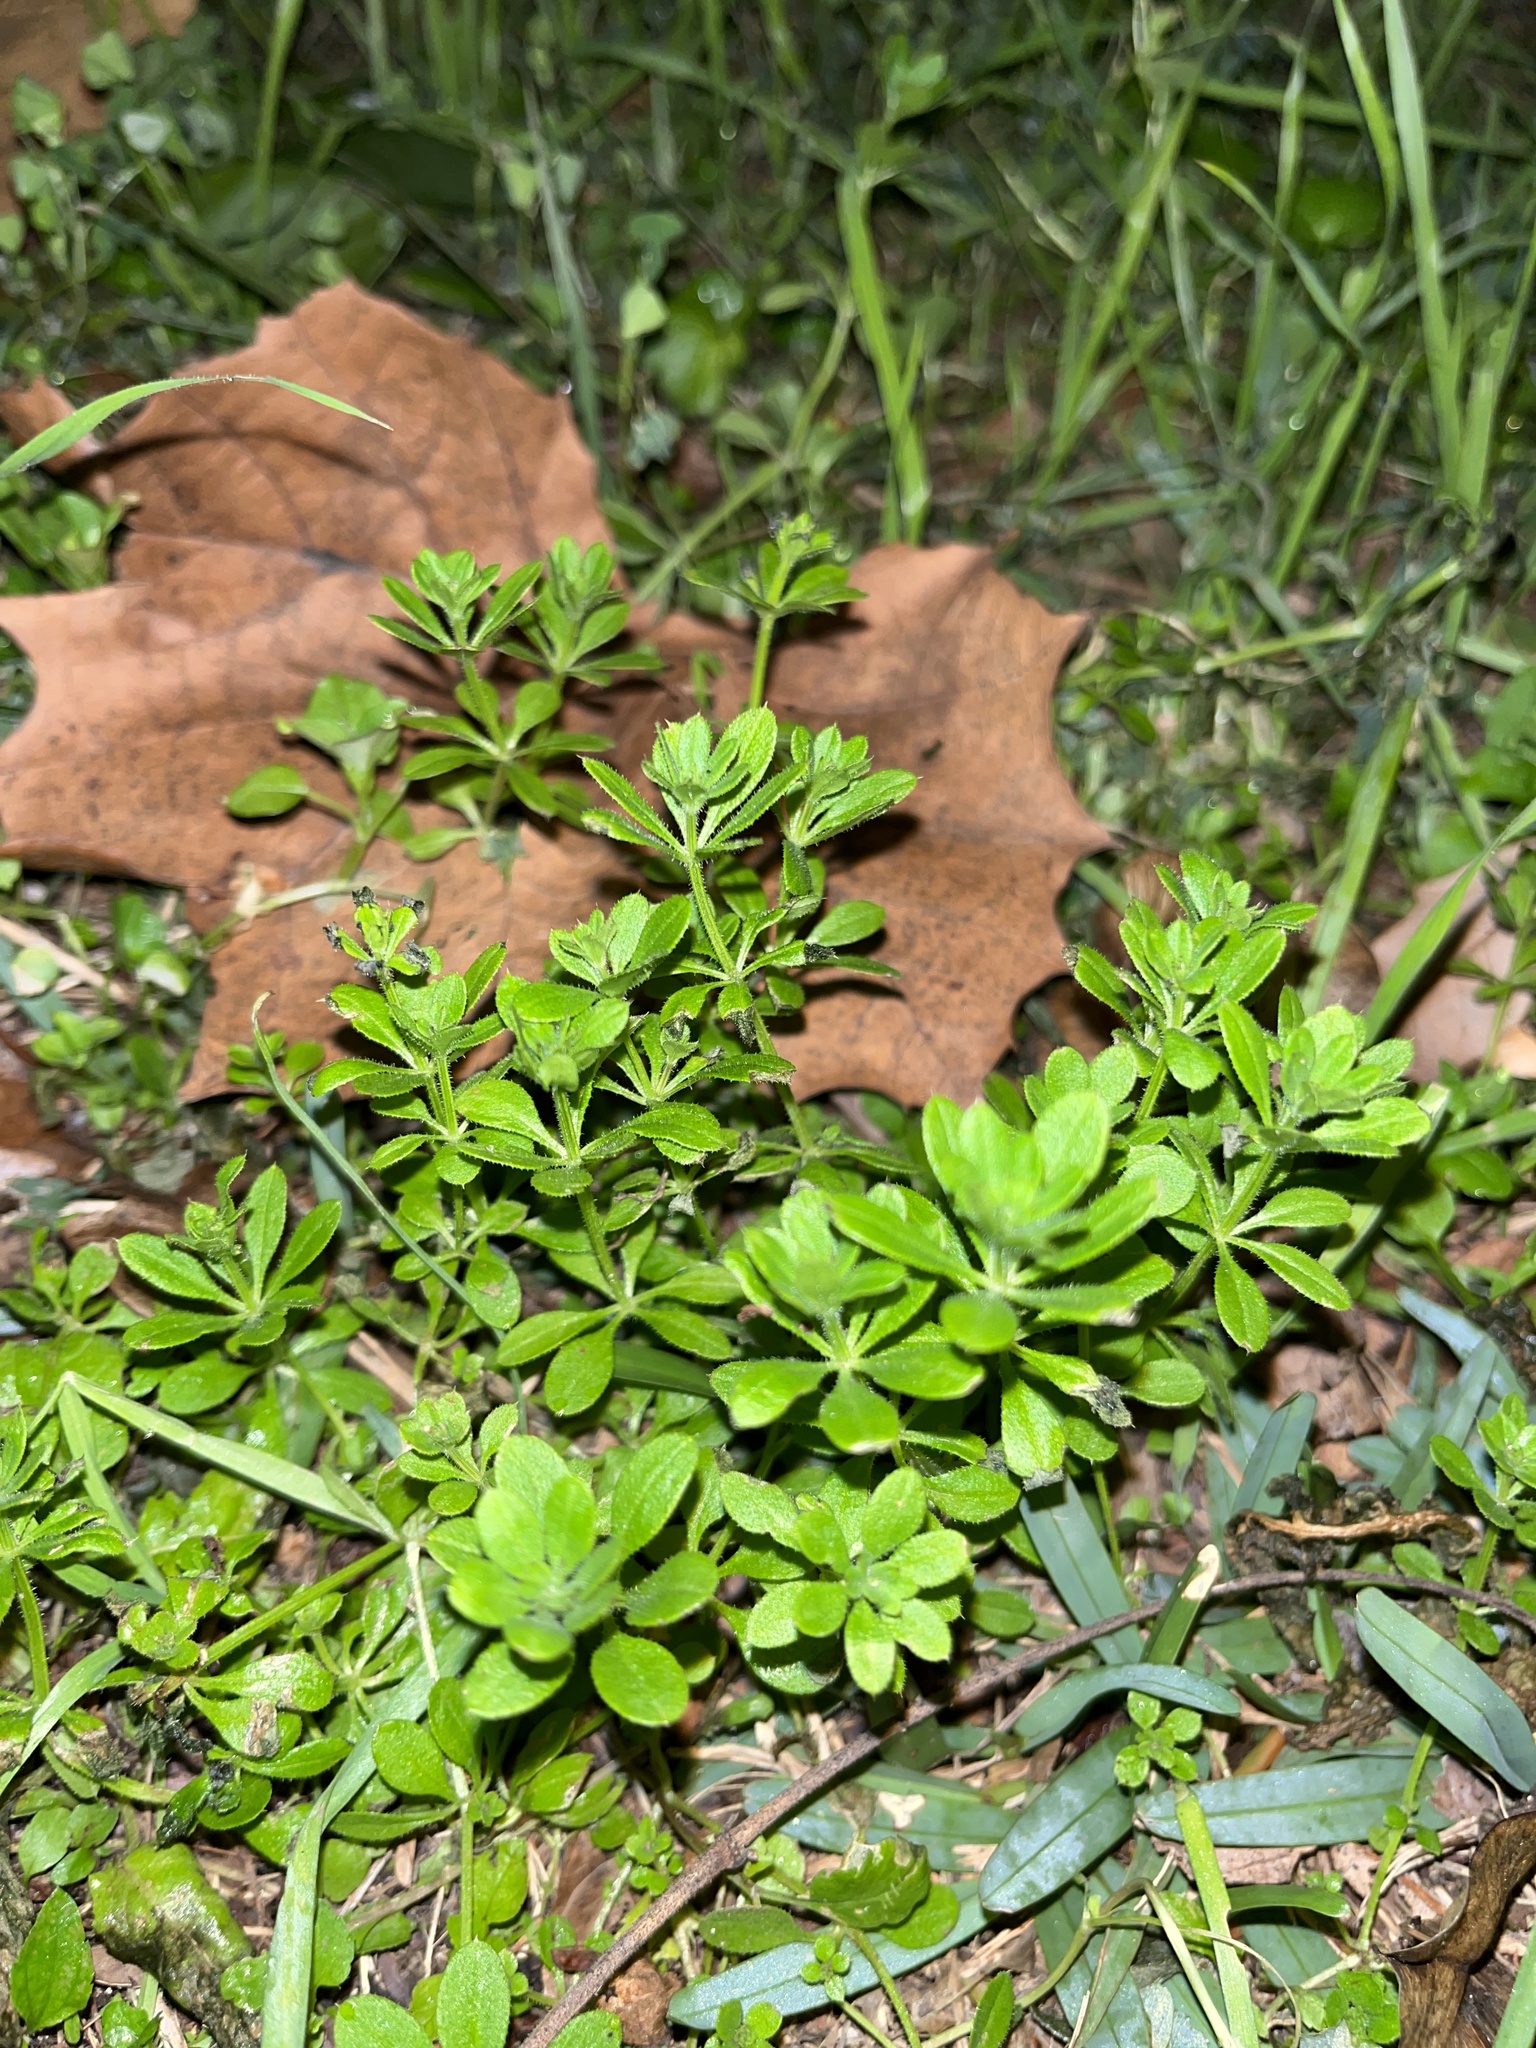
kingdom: Plantae
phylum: Tracheophyta
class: Magnoliopsida
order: Gentianales
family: Rubiaceae
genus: Galium
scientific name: Galium aparine
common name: Cleavers
